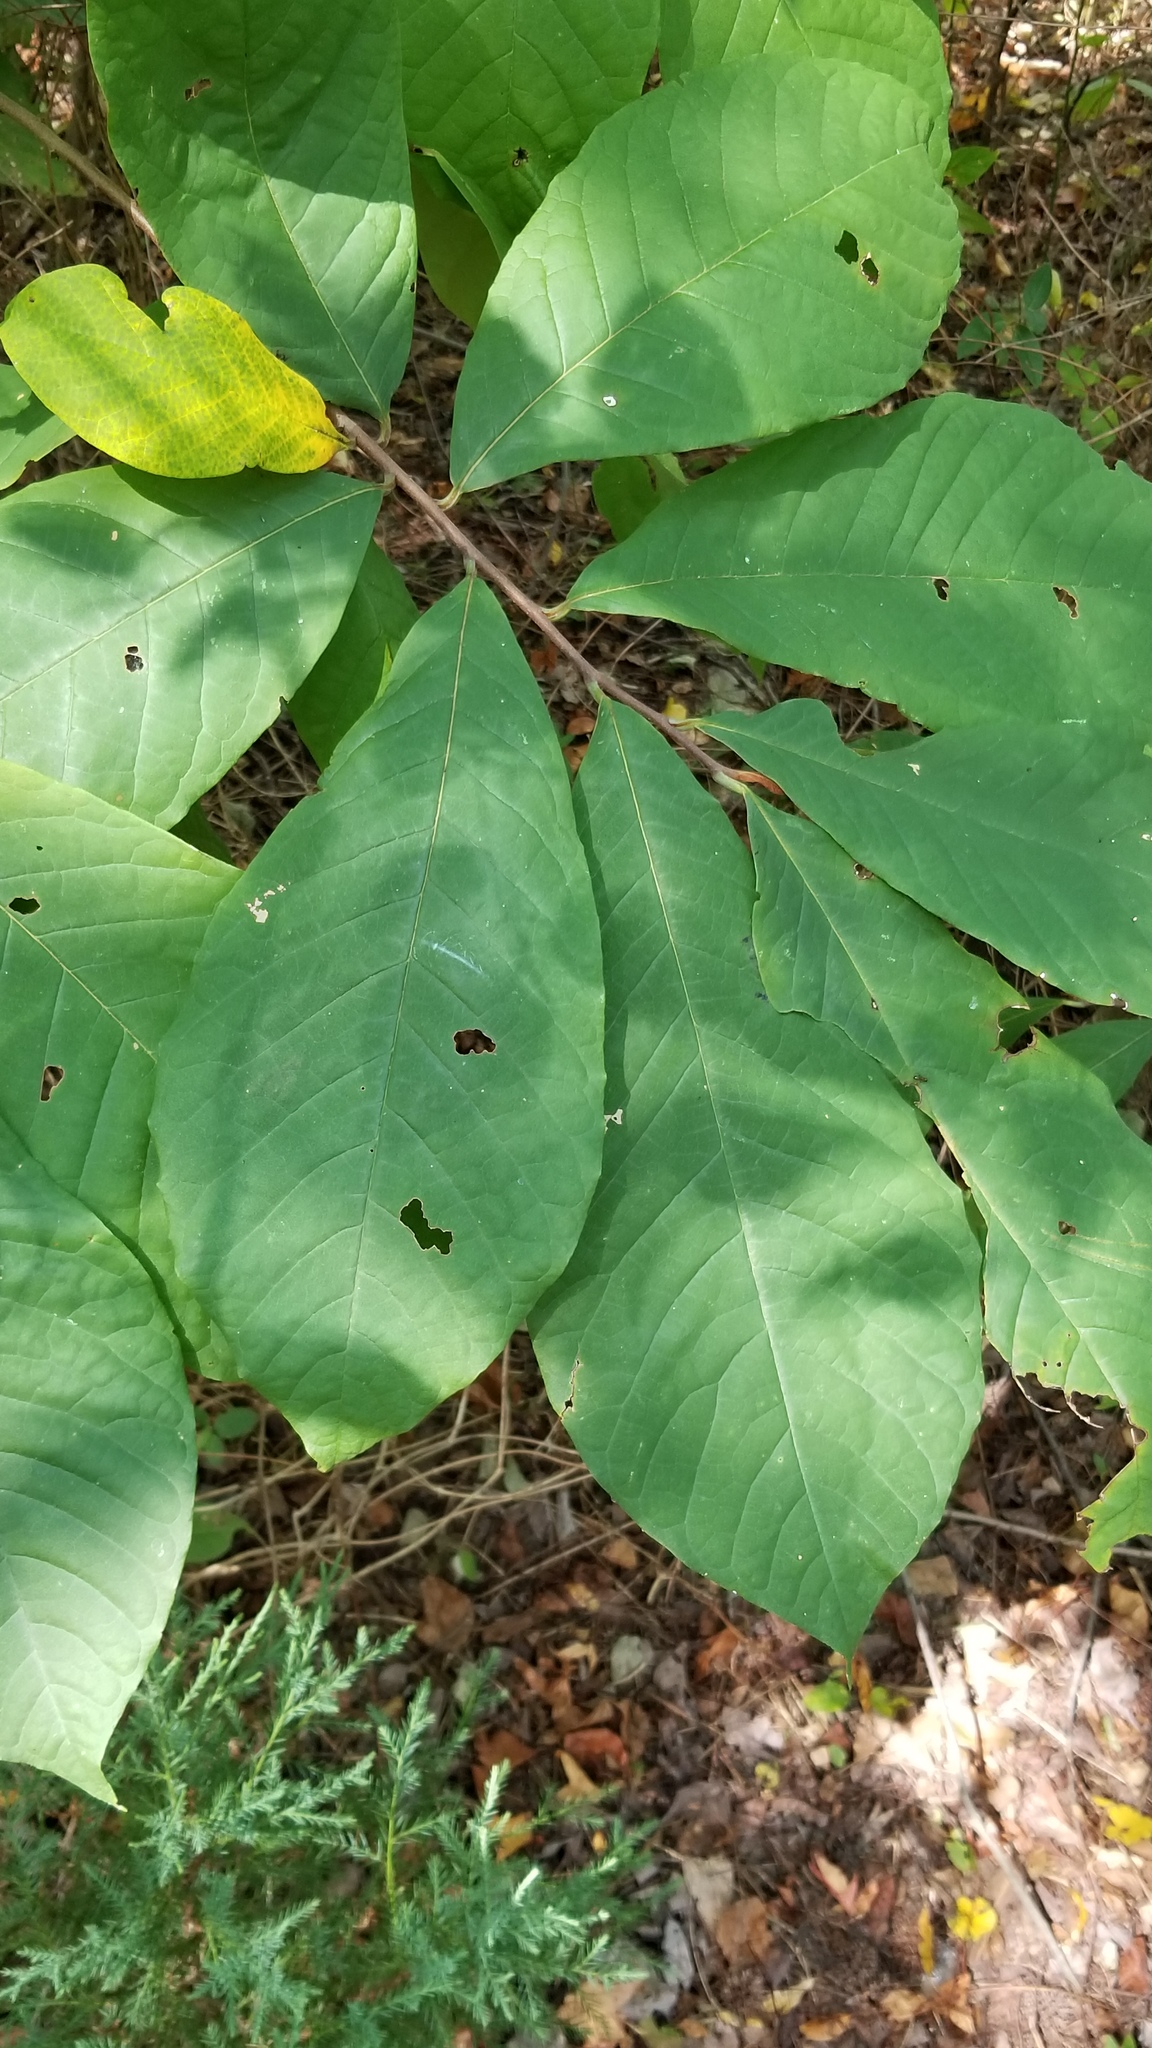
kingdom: Plantae
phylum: Tracheophyta
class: Magnoliopsida
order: Magnoliales
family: Annonaceae
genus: Asimina
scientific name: Asimina triloba
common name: Dog-banana
